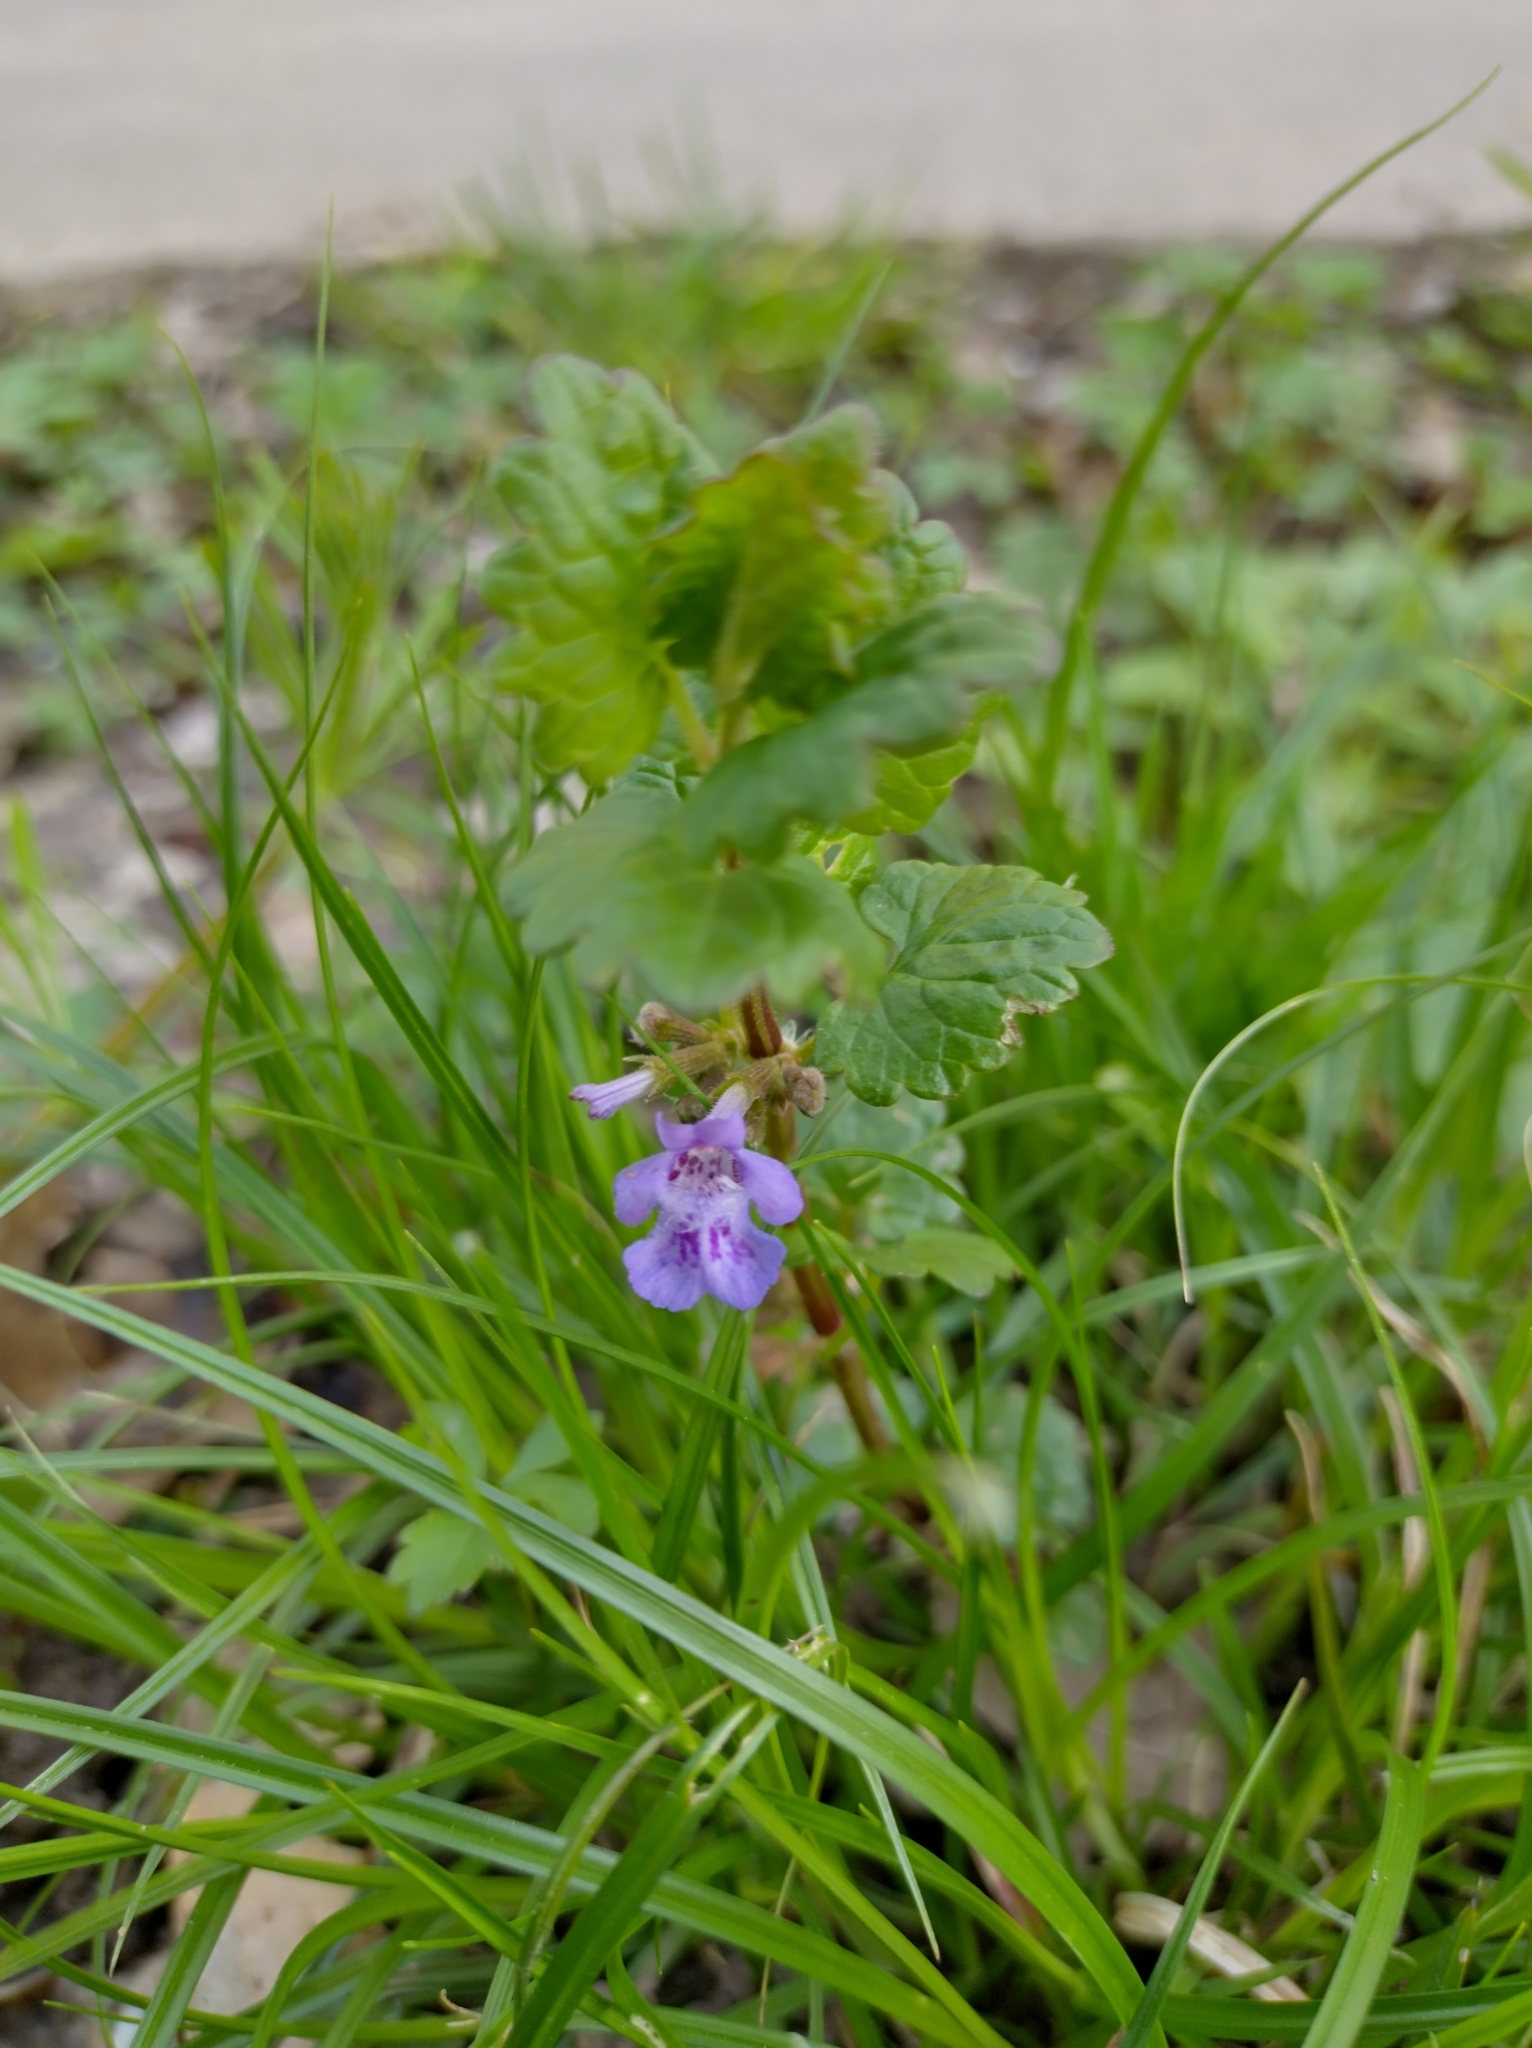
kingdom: Plantae
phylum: Tracheophyta
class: Magnoliopsida
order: Lamiales
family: Lamiaceae
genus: Glechoma
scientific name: Glechoma hederacea
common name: Ground ivy
